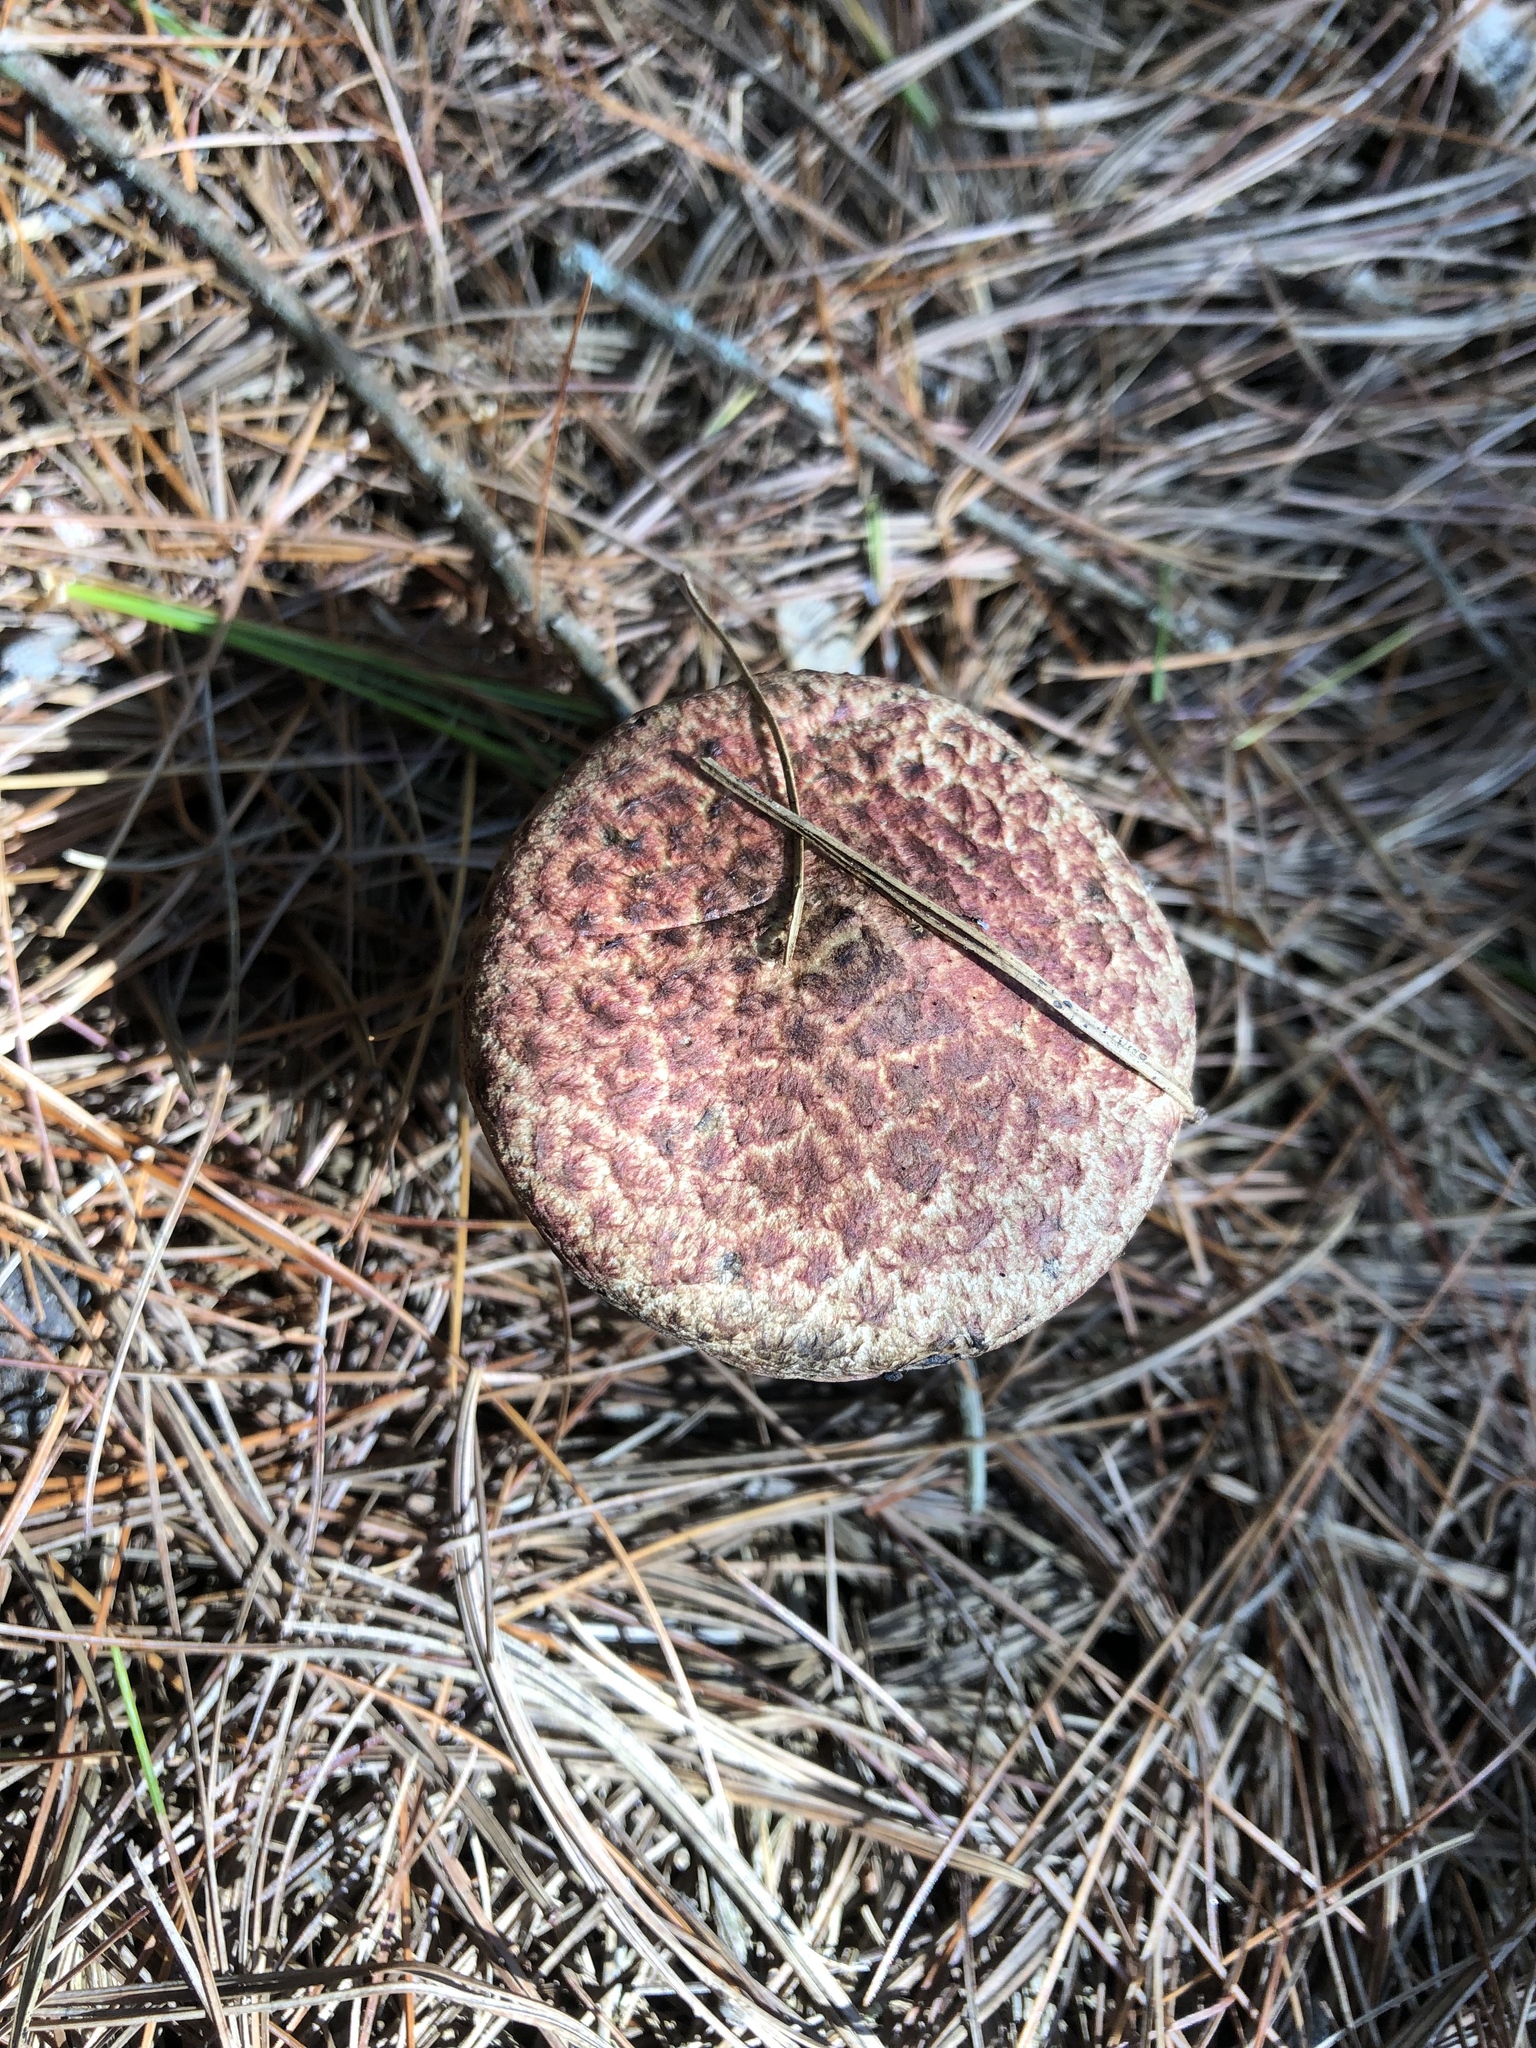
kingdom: Fungi
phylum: Basidiomycota
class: Agaricomycetes
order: Boletales
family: Suillaceae
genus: Suillus
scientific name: Suillus spraguei
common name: Painted suillus
